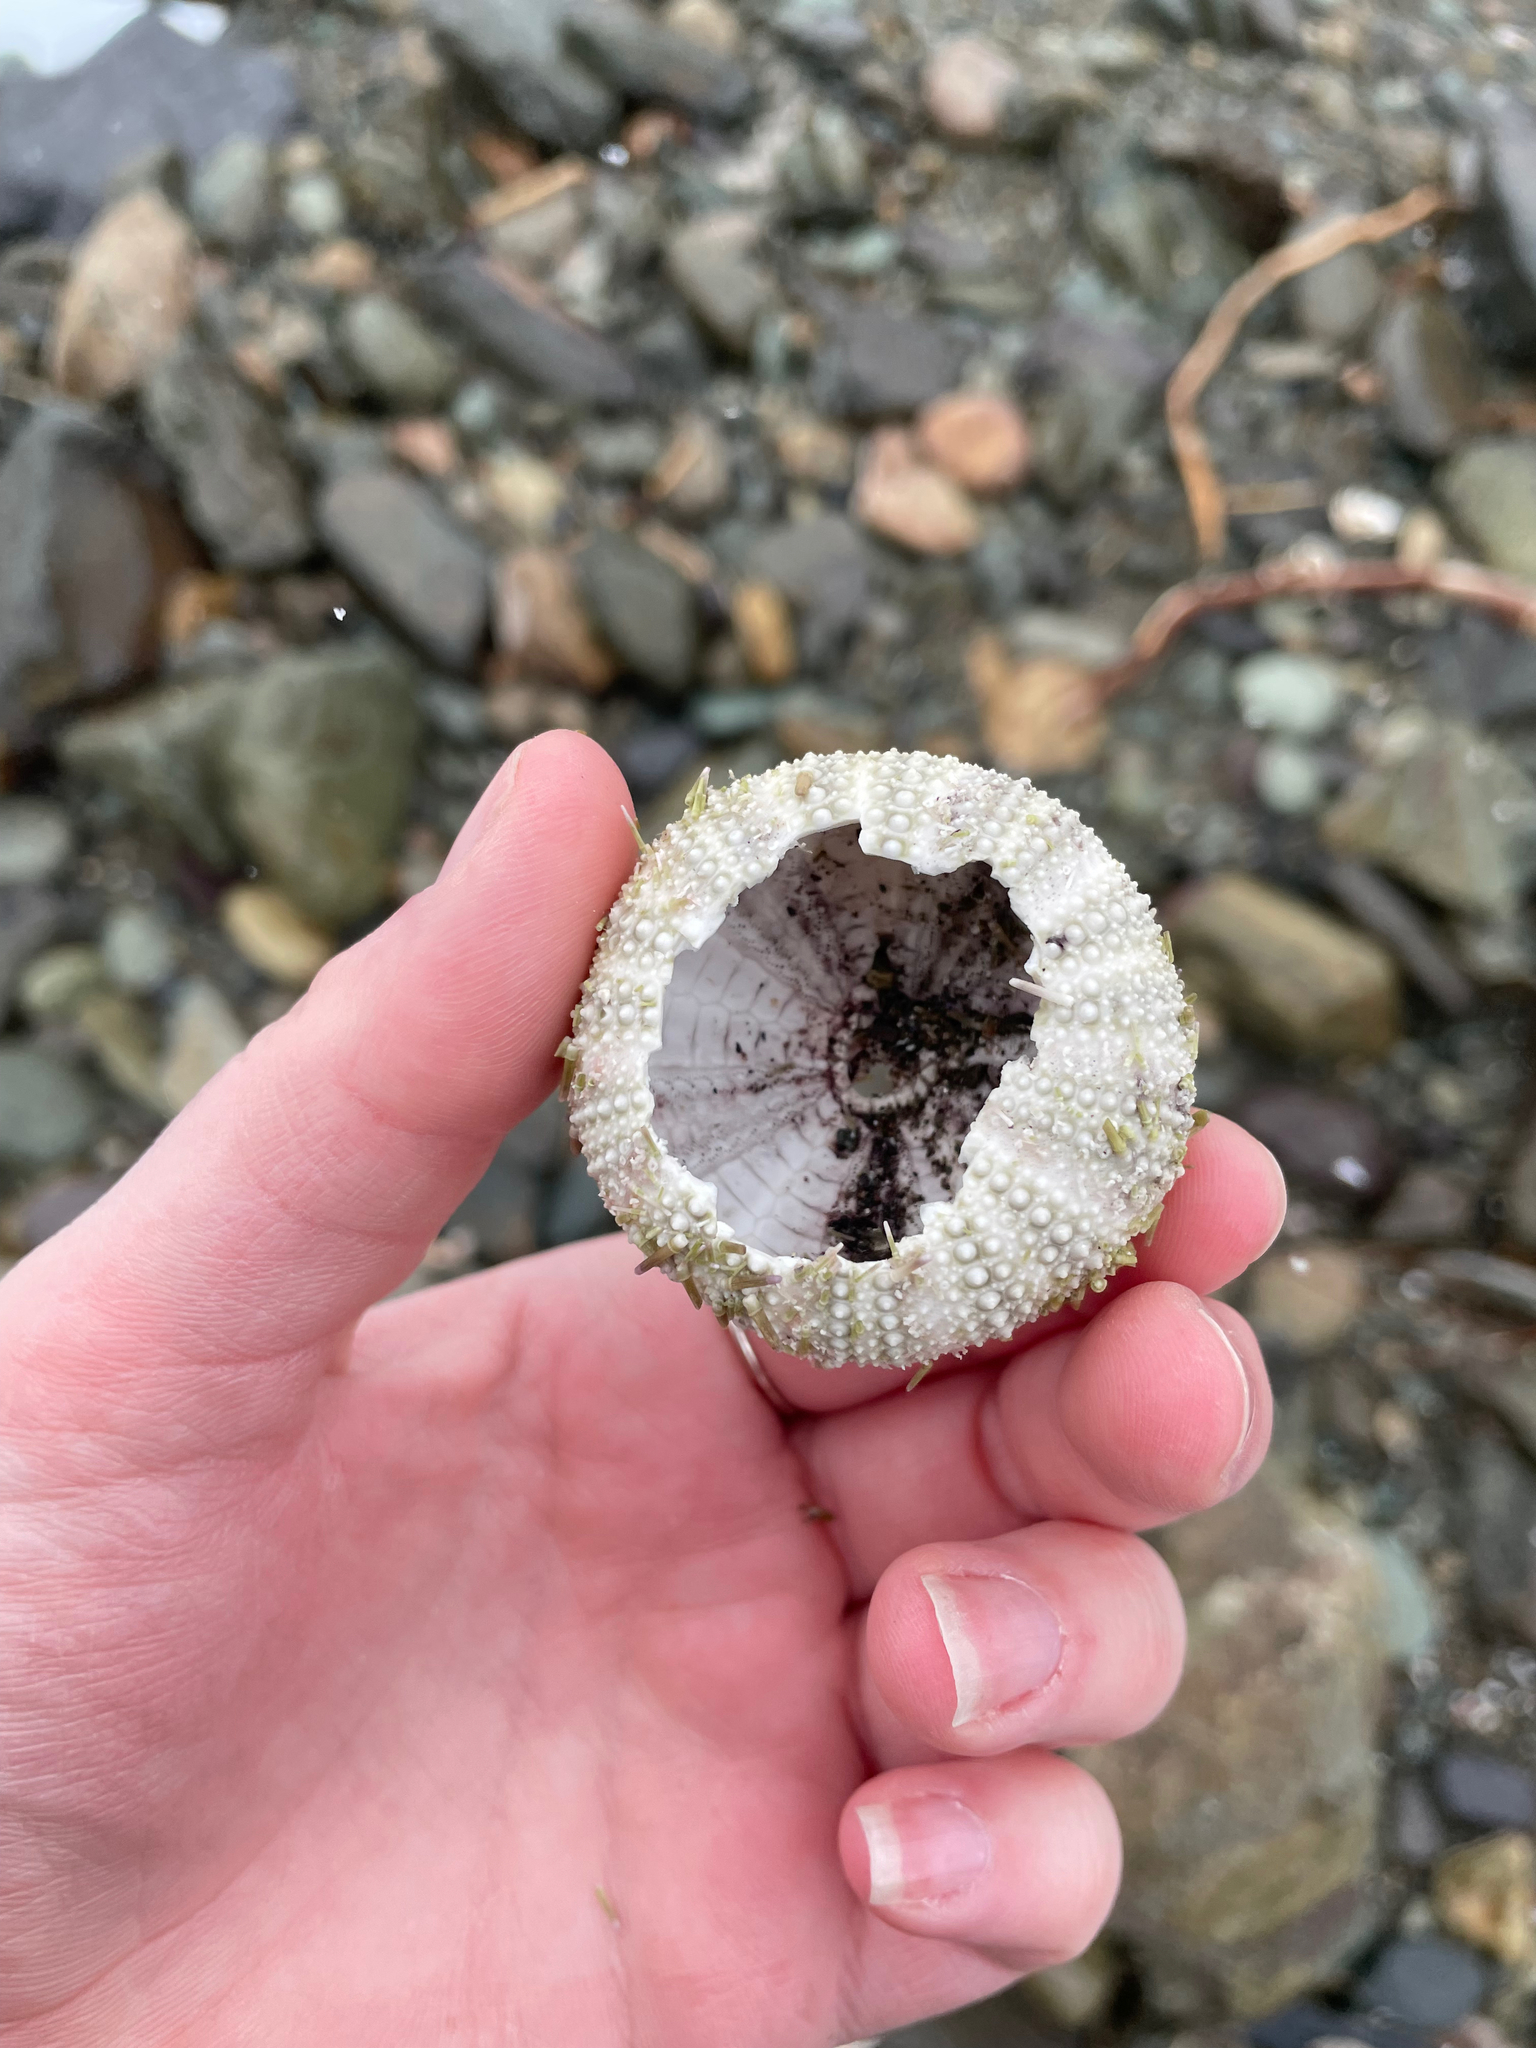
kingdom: Animalia
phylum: Echinodermata
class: Echinoidea
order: Camarodonta
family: Strongylocentrotidae
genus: Strongylocentrotus
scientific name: Strongylocentrotus droebachiensis
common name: Northern sea urchin
